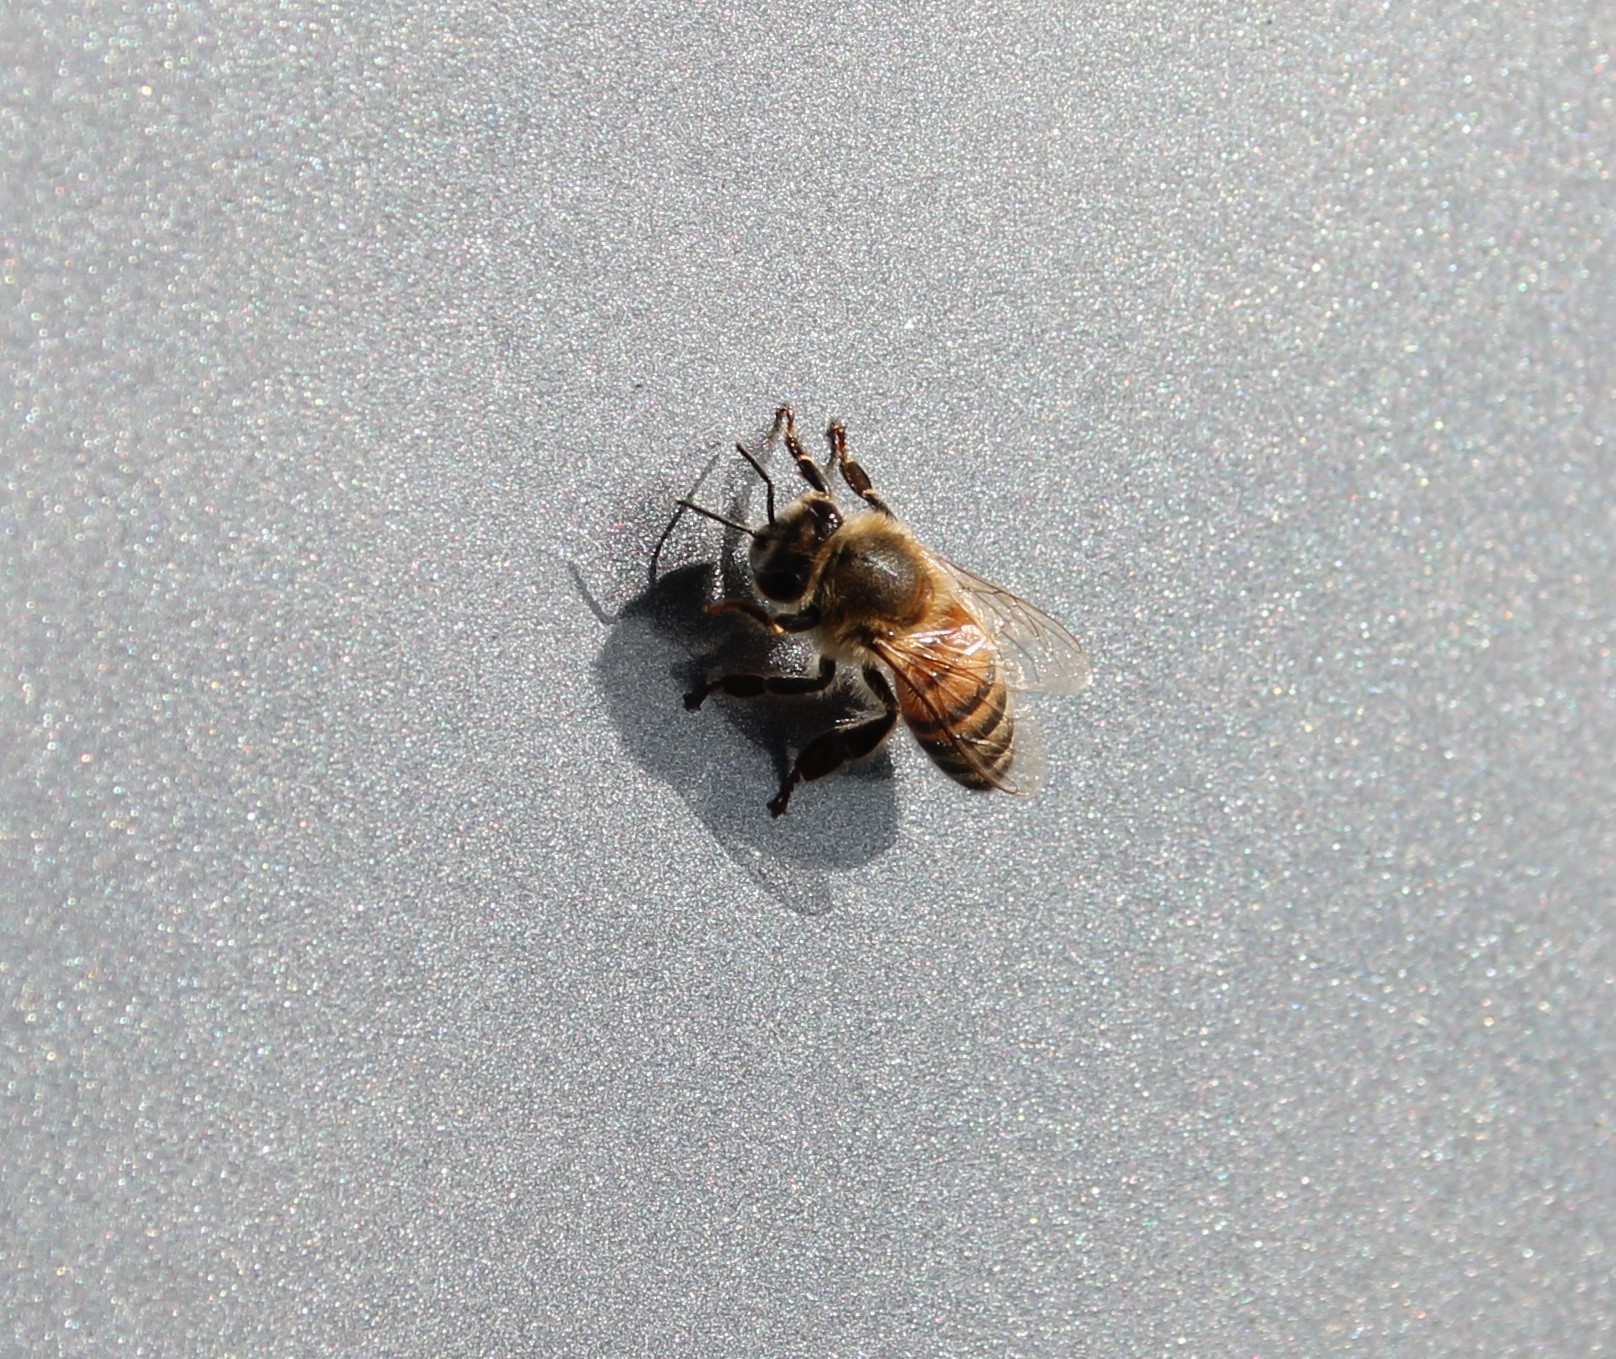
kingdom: Animalia
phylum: Arthropoda
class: Insecta
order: Hymenoptera
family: Apidae
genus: Apis
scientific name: Apis mellifera
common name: Honey bee
